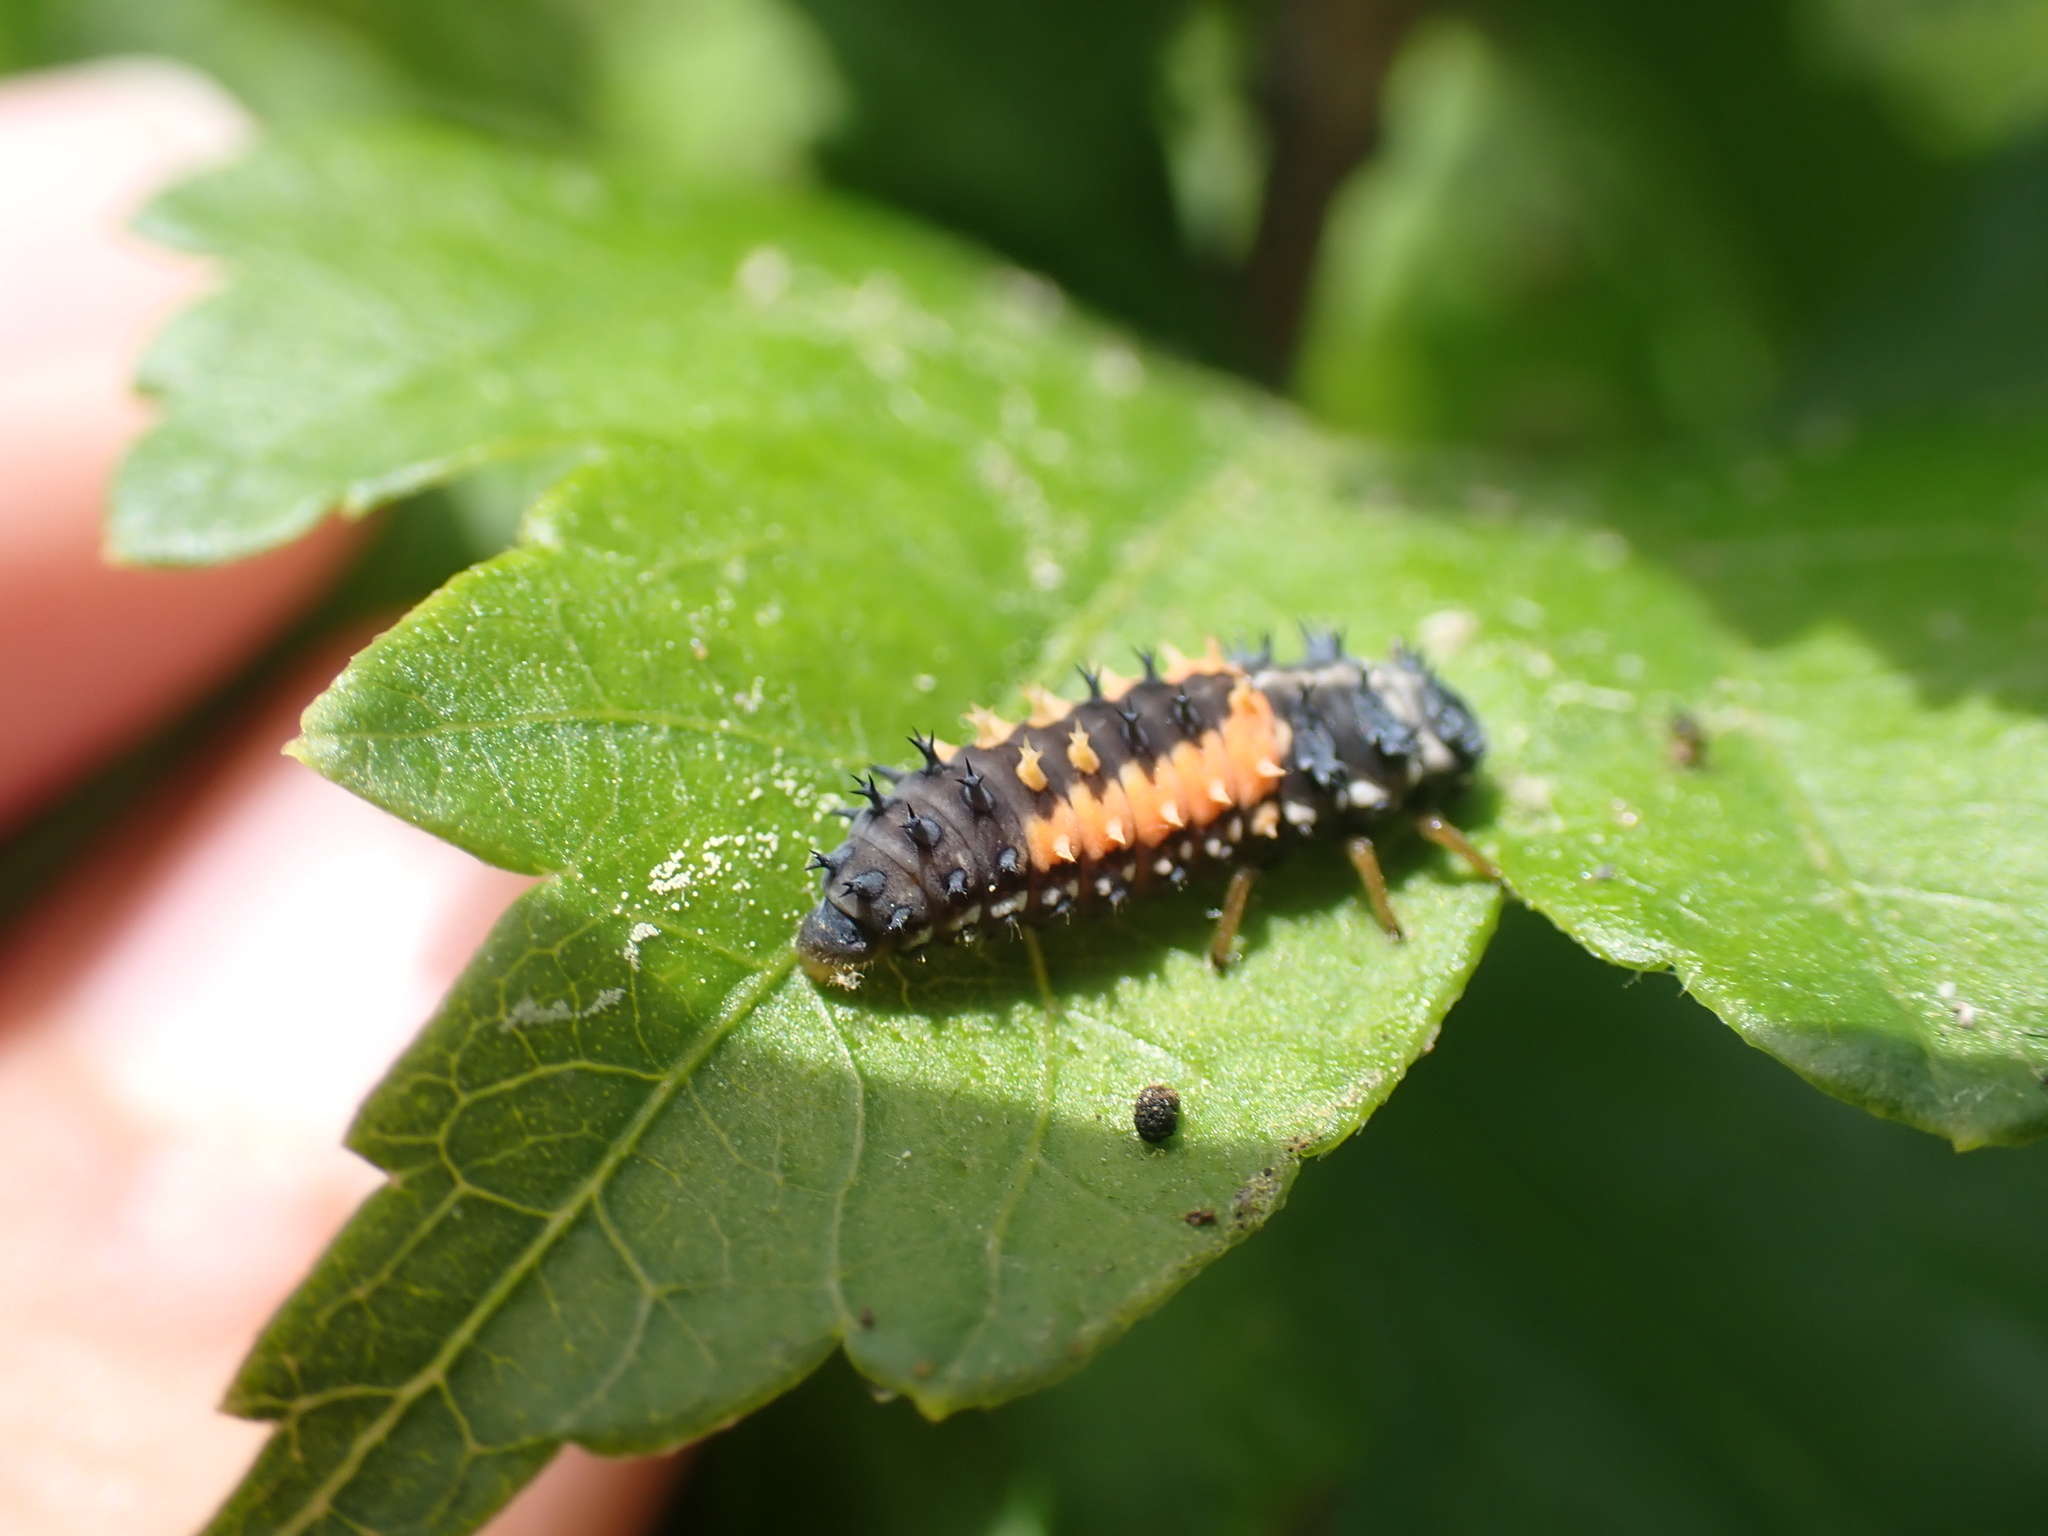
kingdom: Animalia
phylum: Arthropoda
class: Insecta
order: Coleoptera
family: Coccinellidae
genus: Harmonia
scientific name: Harmonia axyridis
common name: Harlequin ladybird
